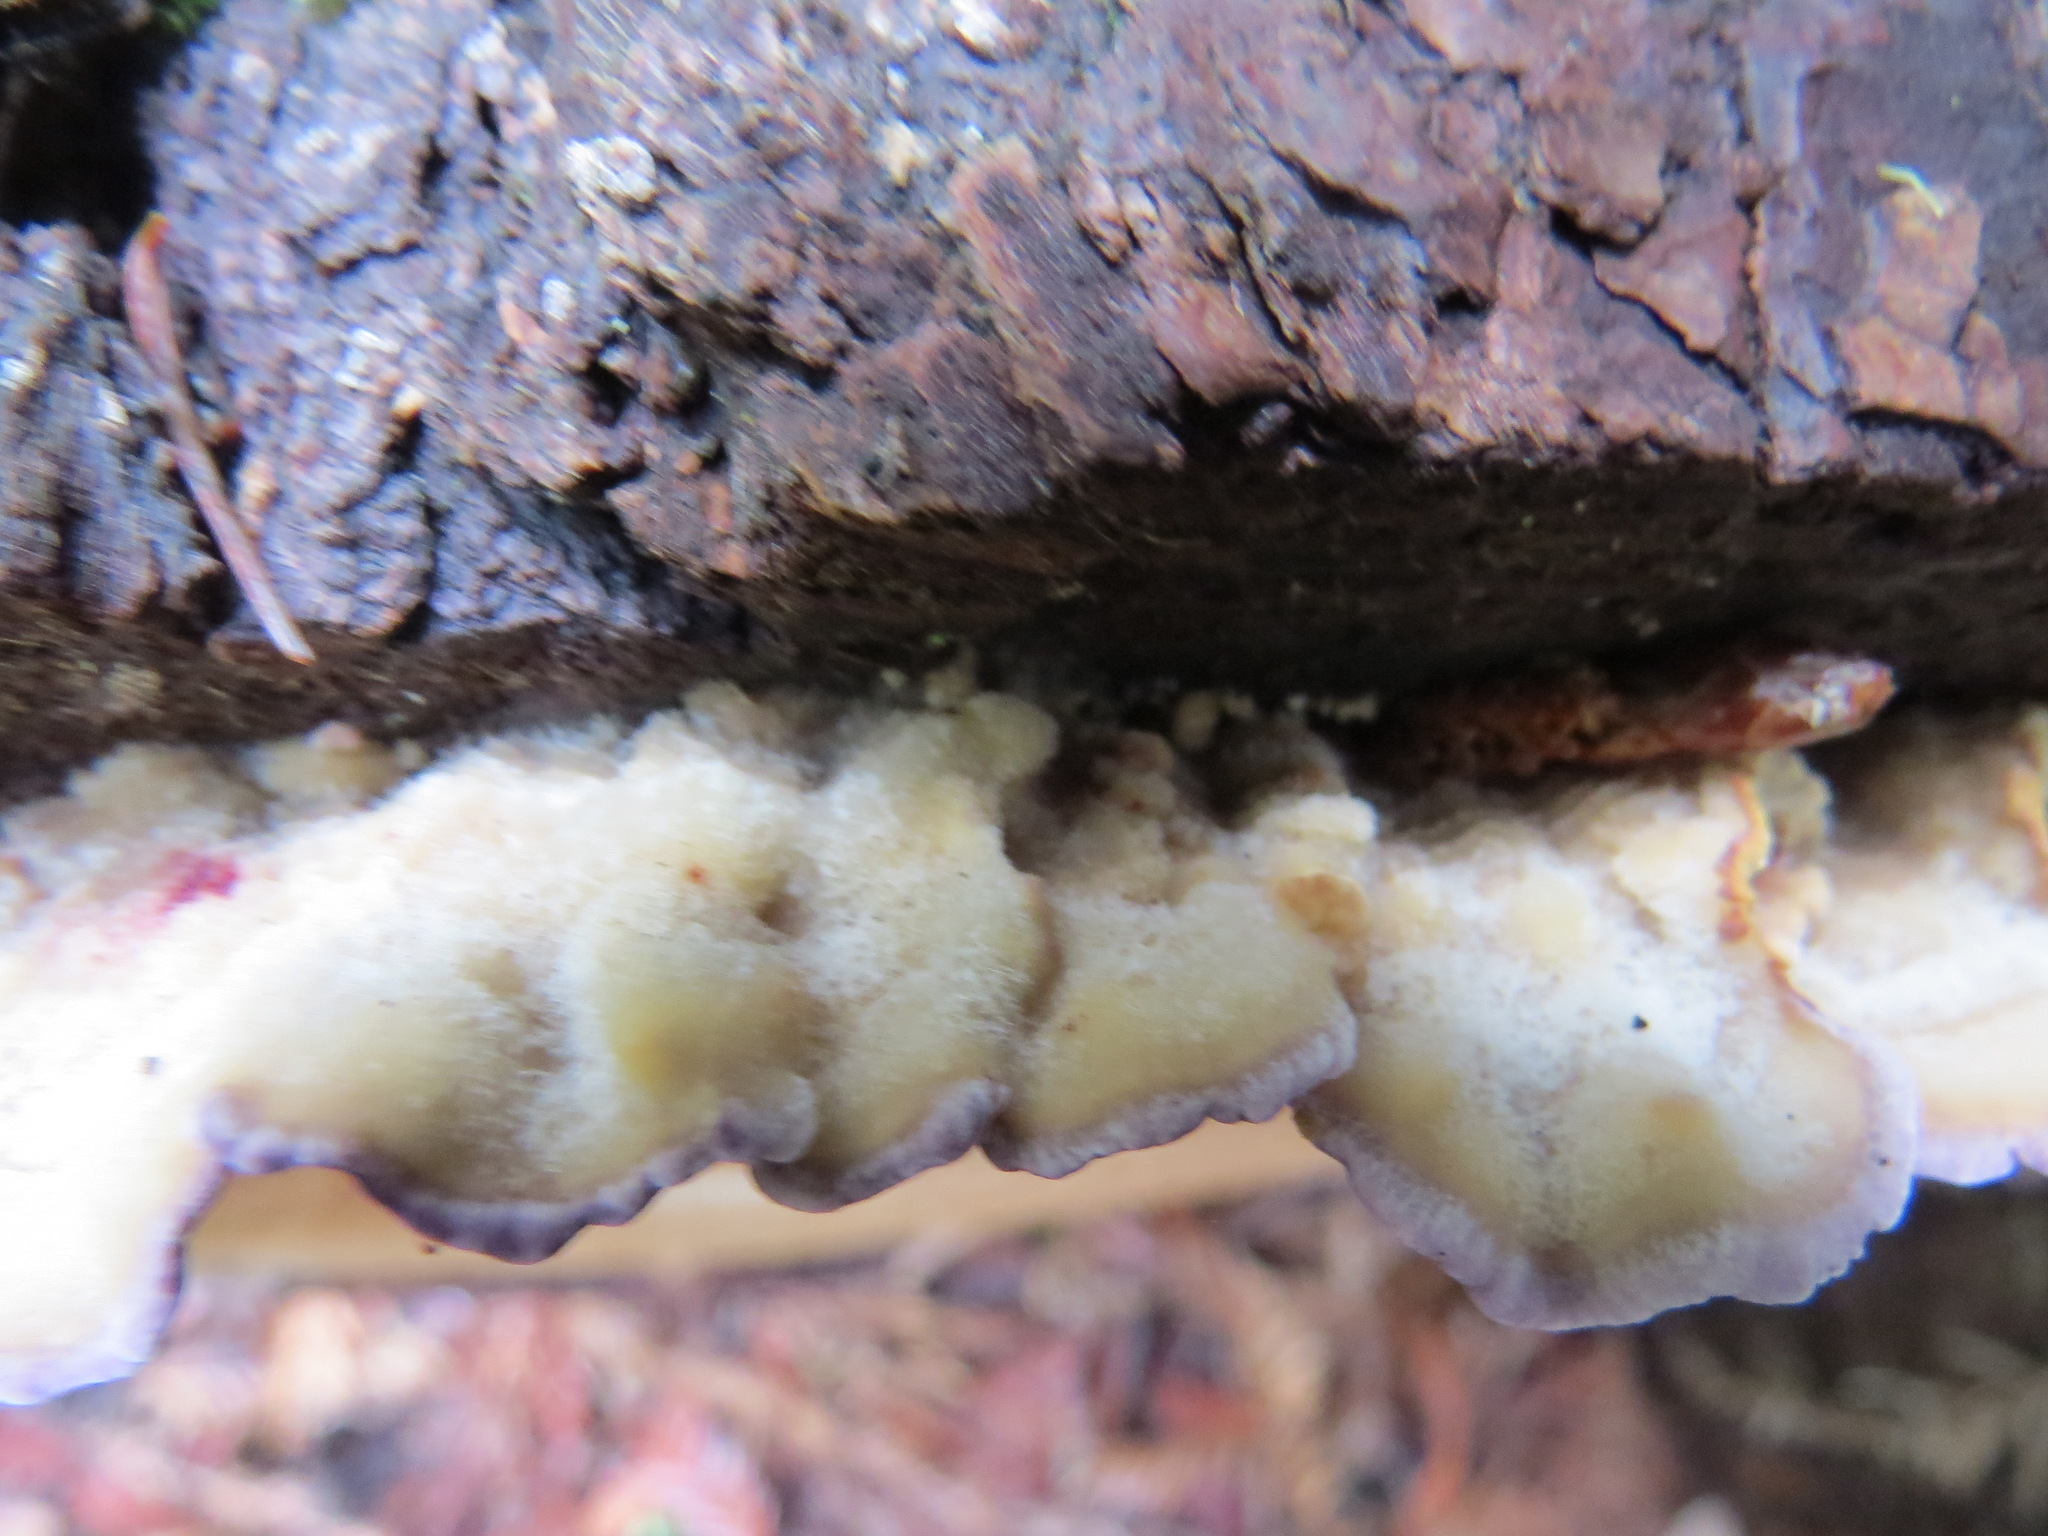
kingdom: Fungi
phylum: Basidiomycota
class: Agaricomycetes
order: Hymenochaetales
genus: Trichaptum
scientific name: Trichaptum abietinum
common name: Purplepore bracket
